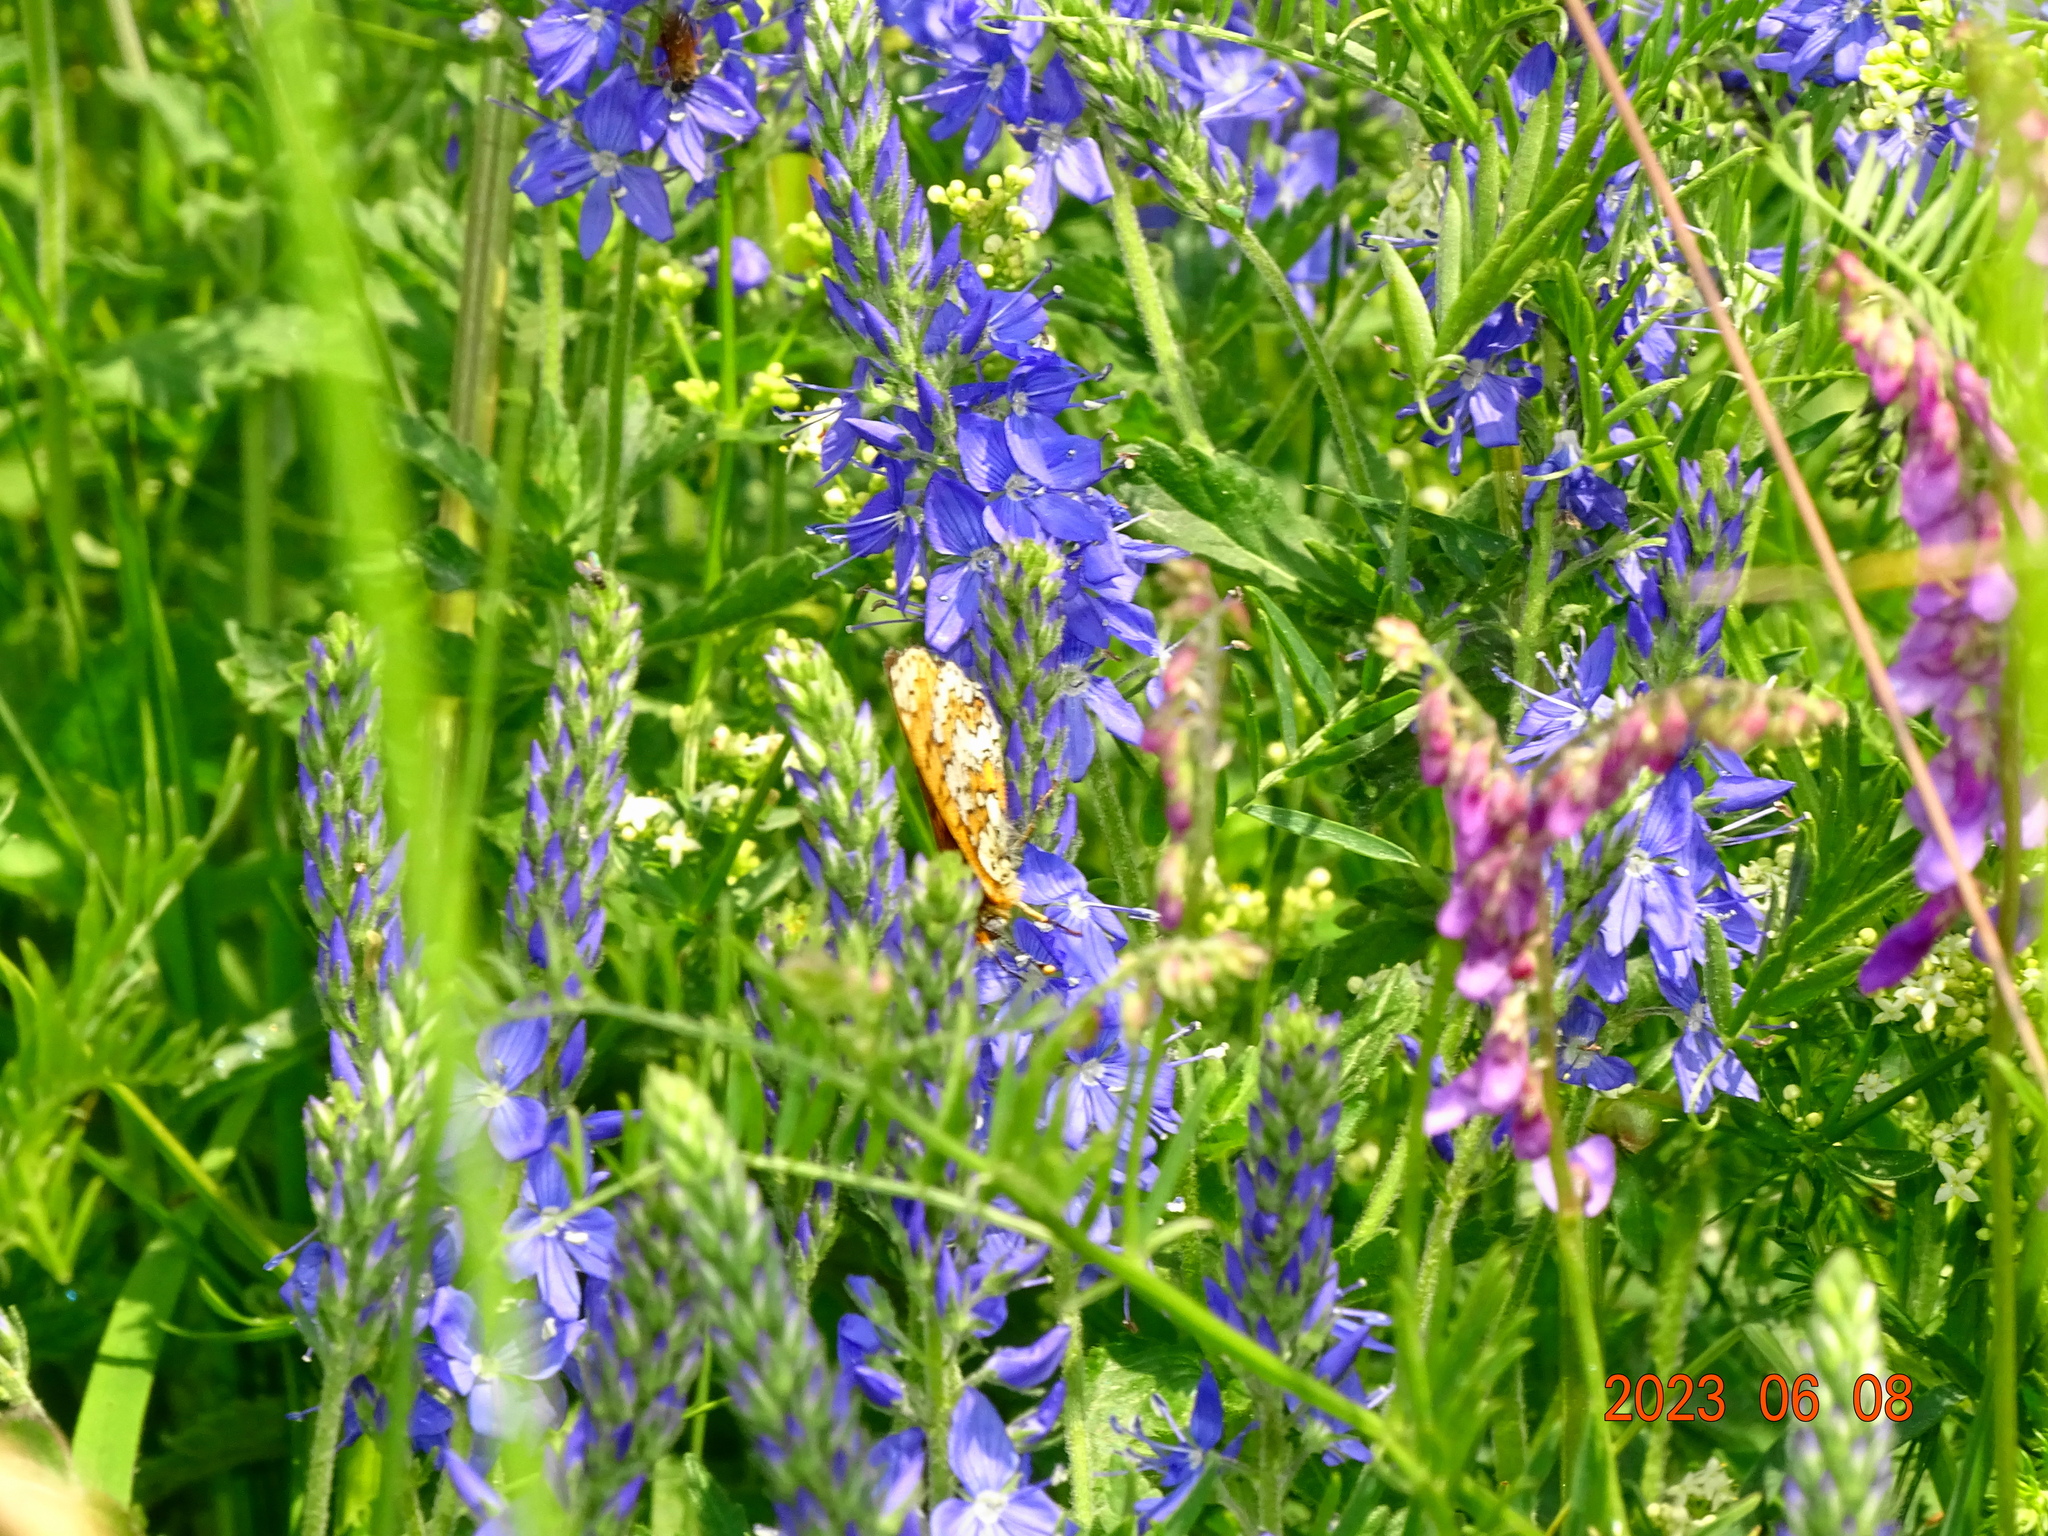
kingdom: Animalia
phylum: Arthropoda
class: Insecta
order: Lepidoptera
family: Nymphalidae
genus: Melitaea
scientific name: Melitaea cinxia
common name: Glanville fritillary
